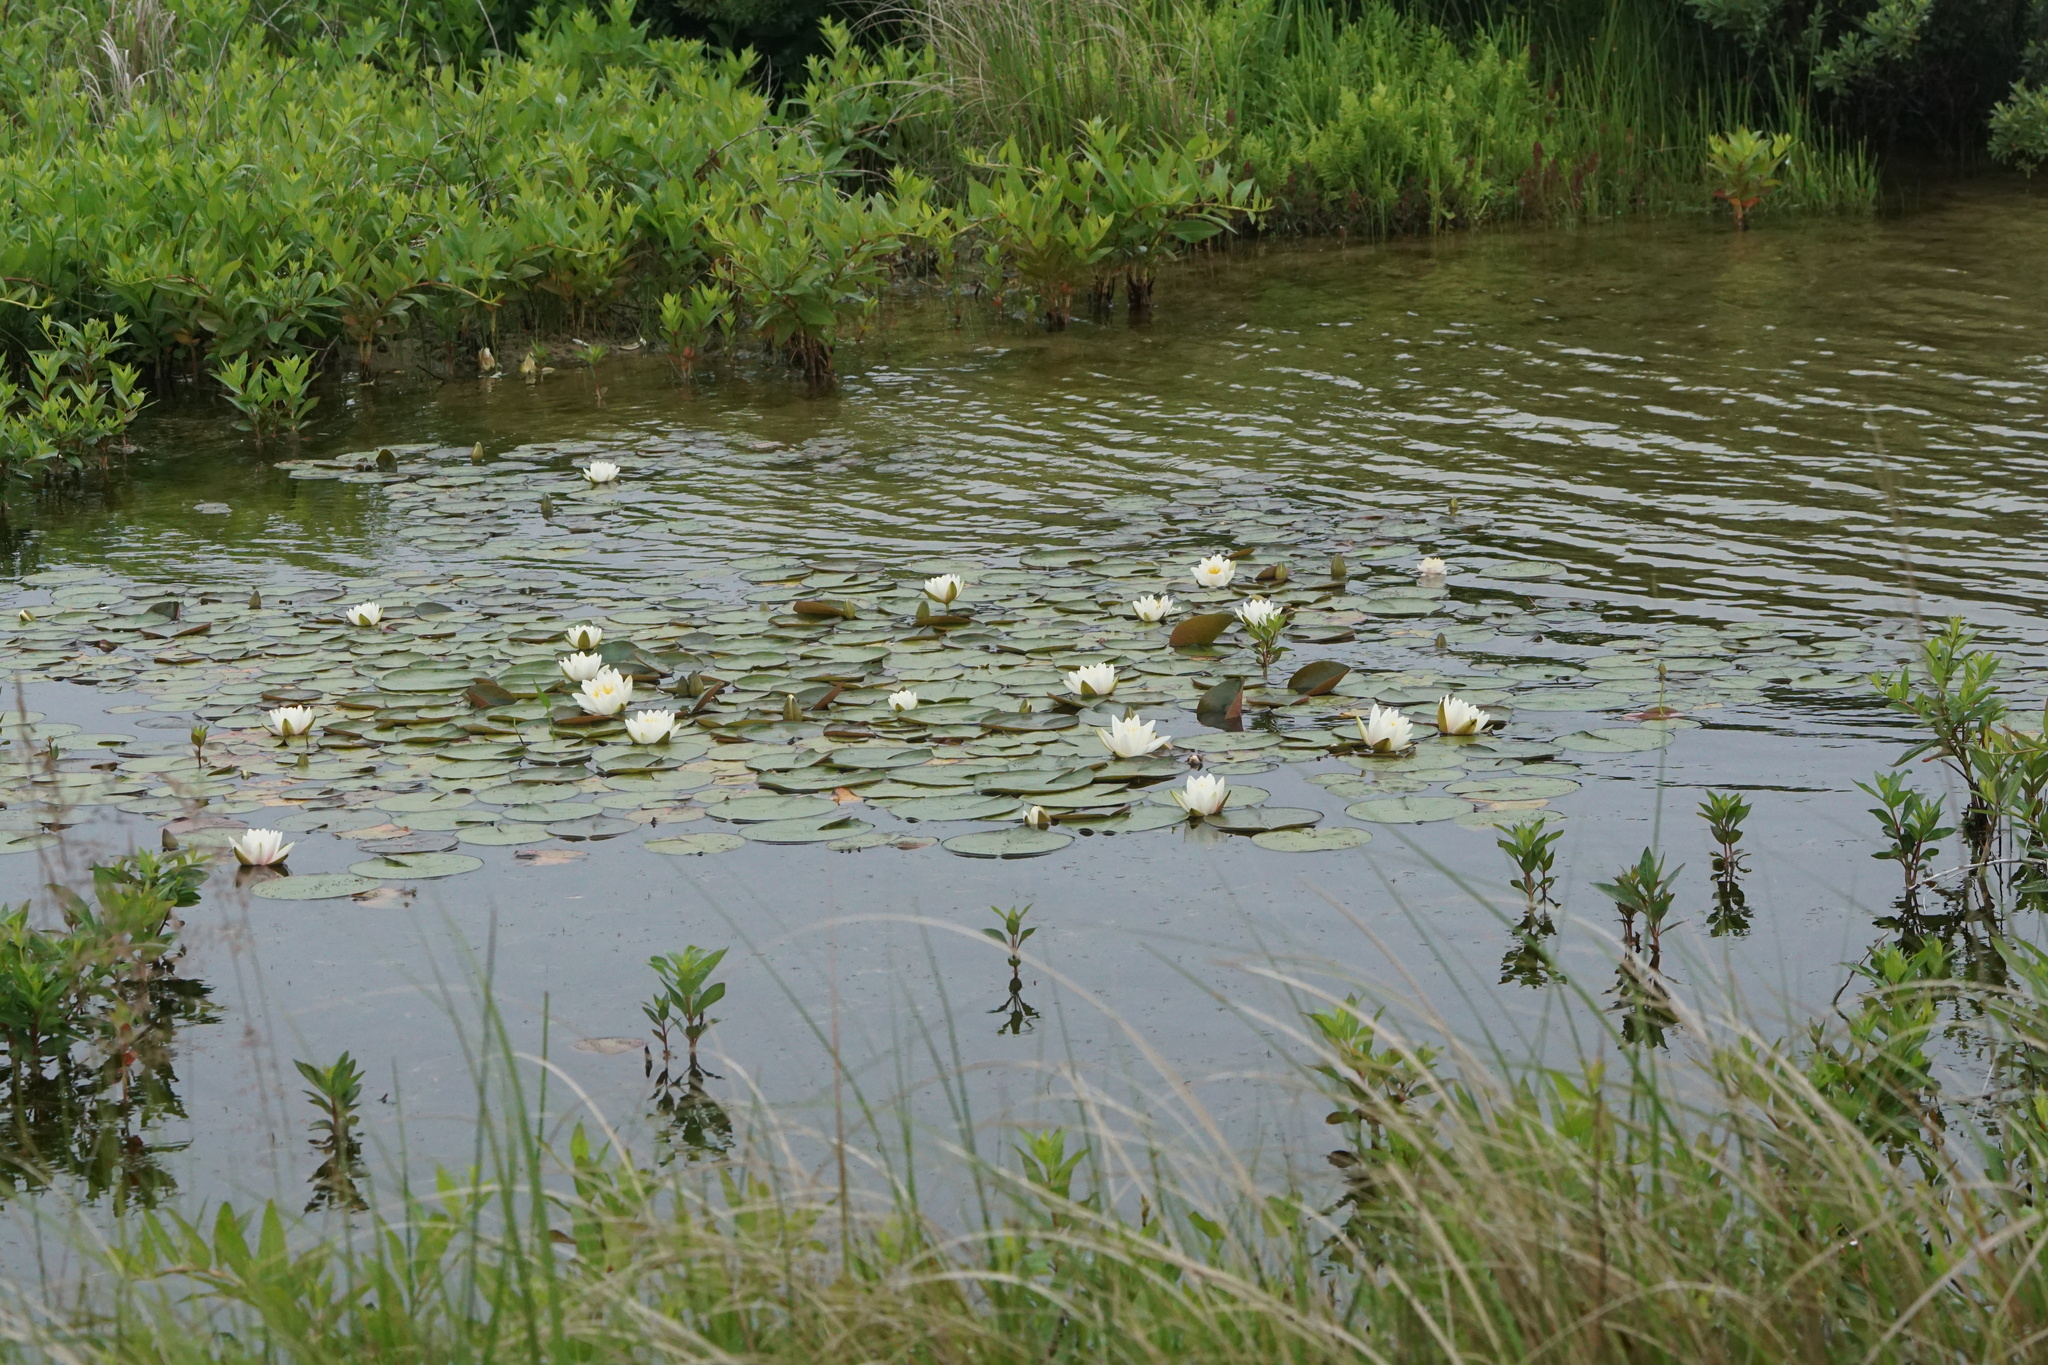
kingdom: Plantae
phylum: Tracheophyta
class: Magnoliopsida
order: Nymphaeales
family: Nymphaeaceae
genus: Nymphaea
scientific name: Nymphaea odorata
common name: Fragrant water-lily
